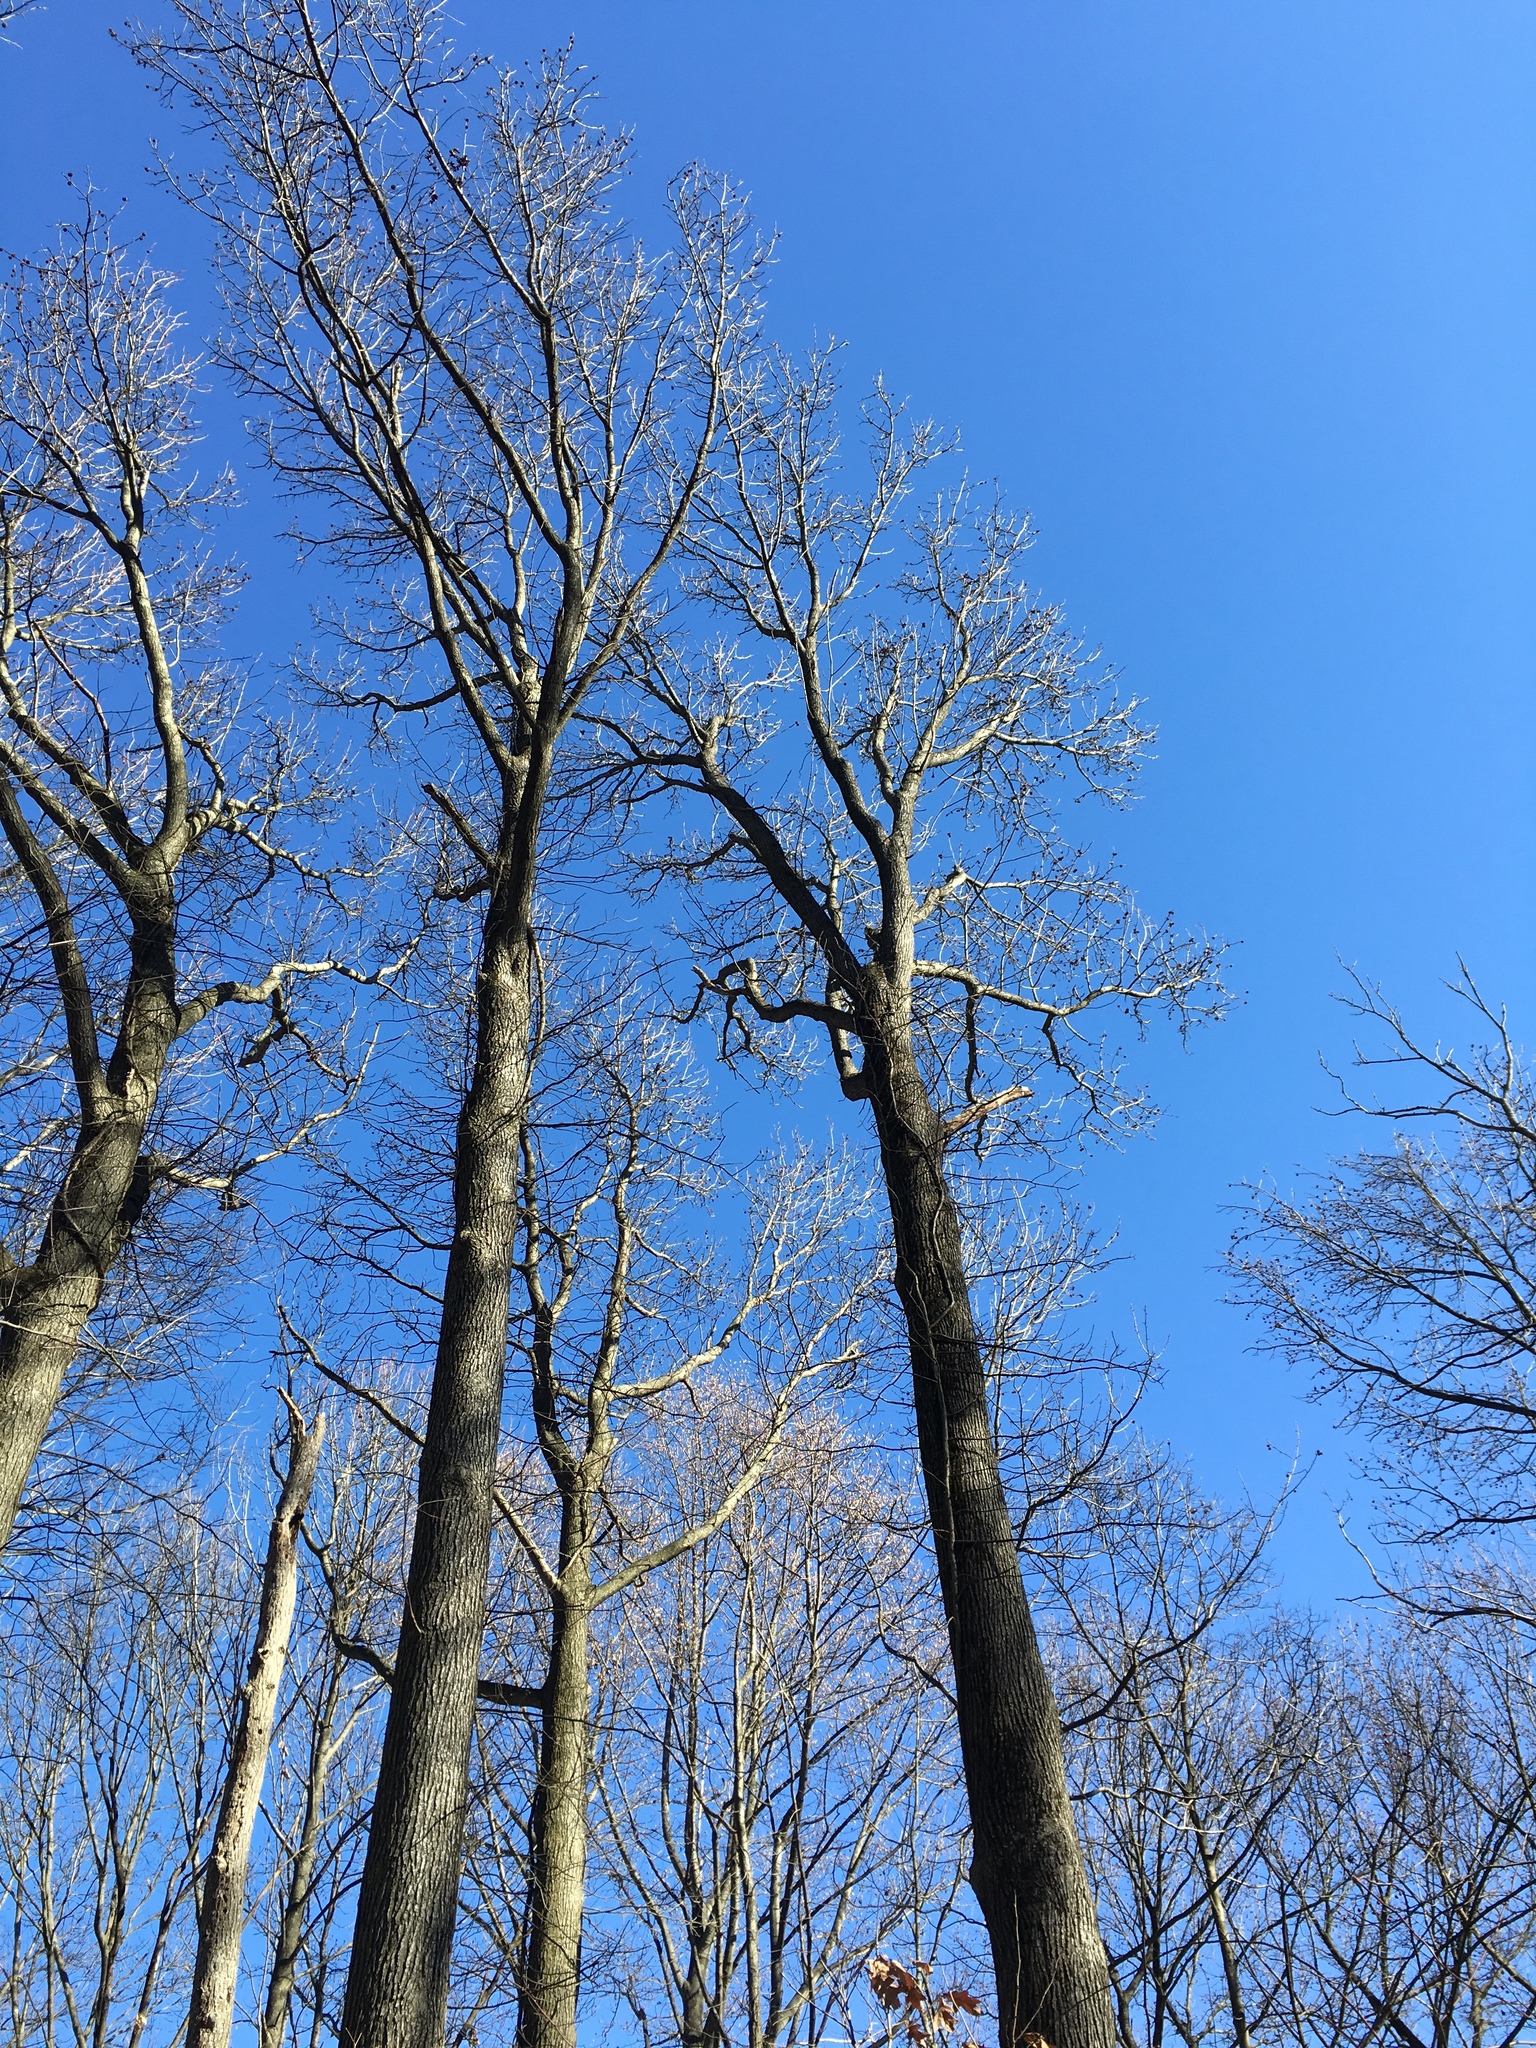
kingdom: Plantae
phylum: Tracheophyta
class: Magnoliopsida
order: Saxifragales
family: Altingiaceae
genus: Liquidambar
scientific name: Liquidambar styraciflua
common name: Sweet gum
